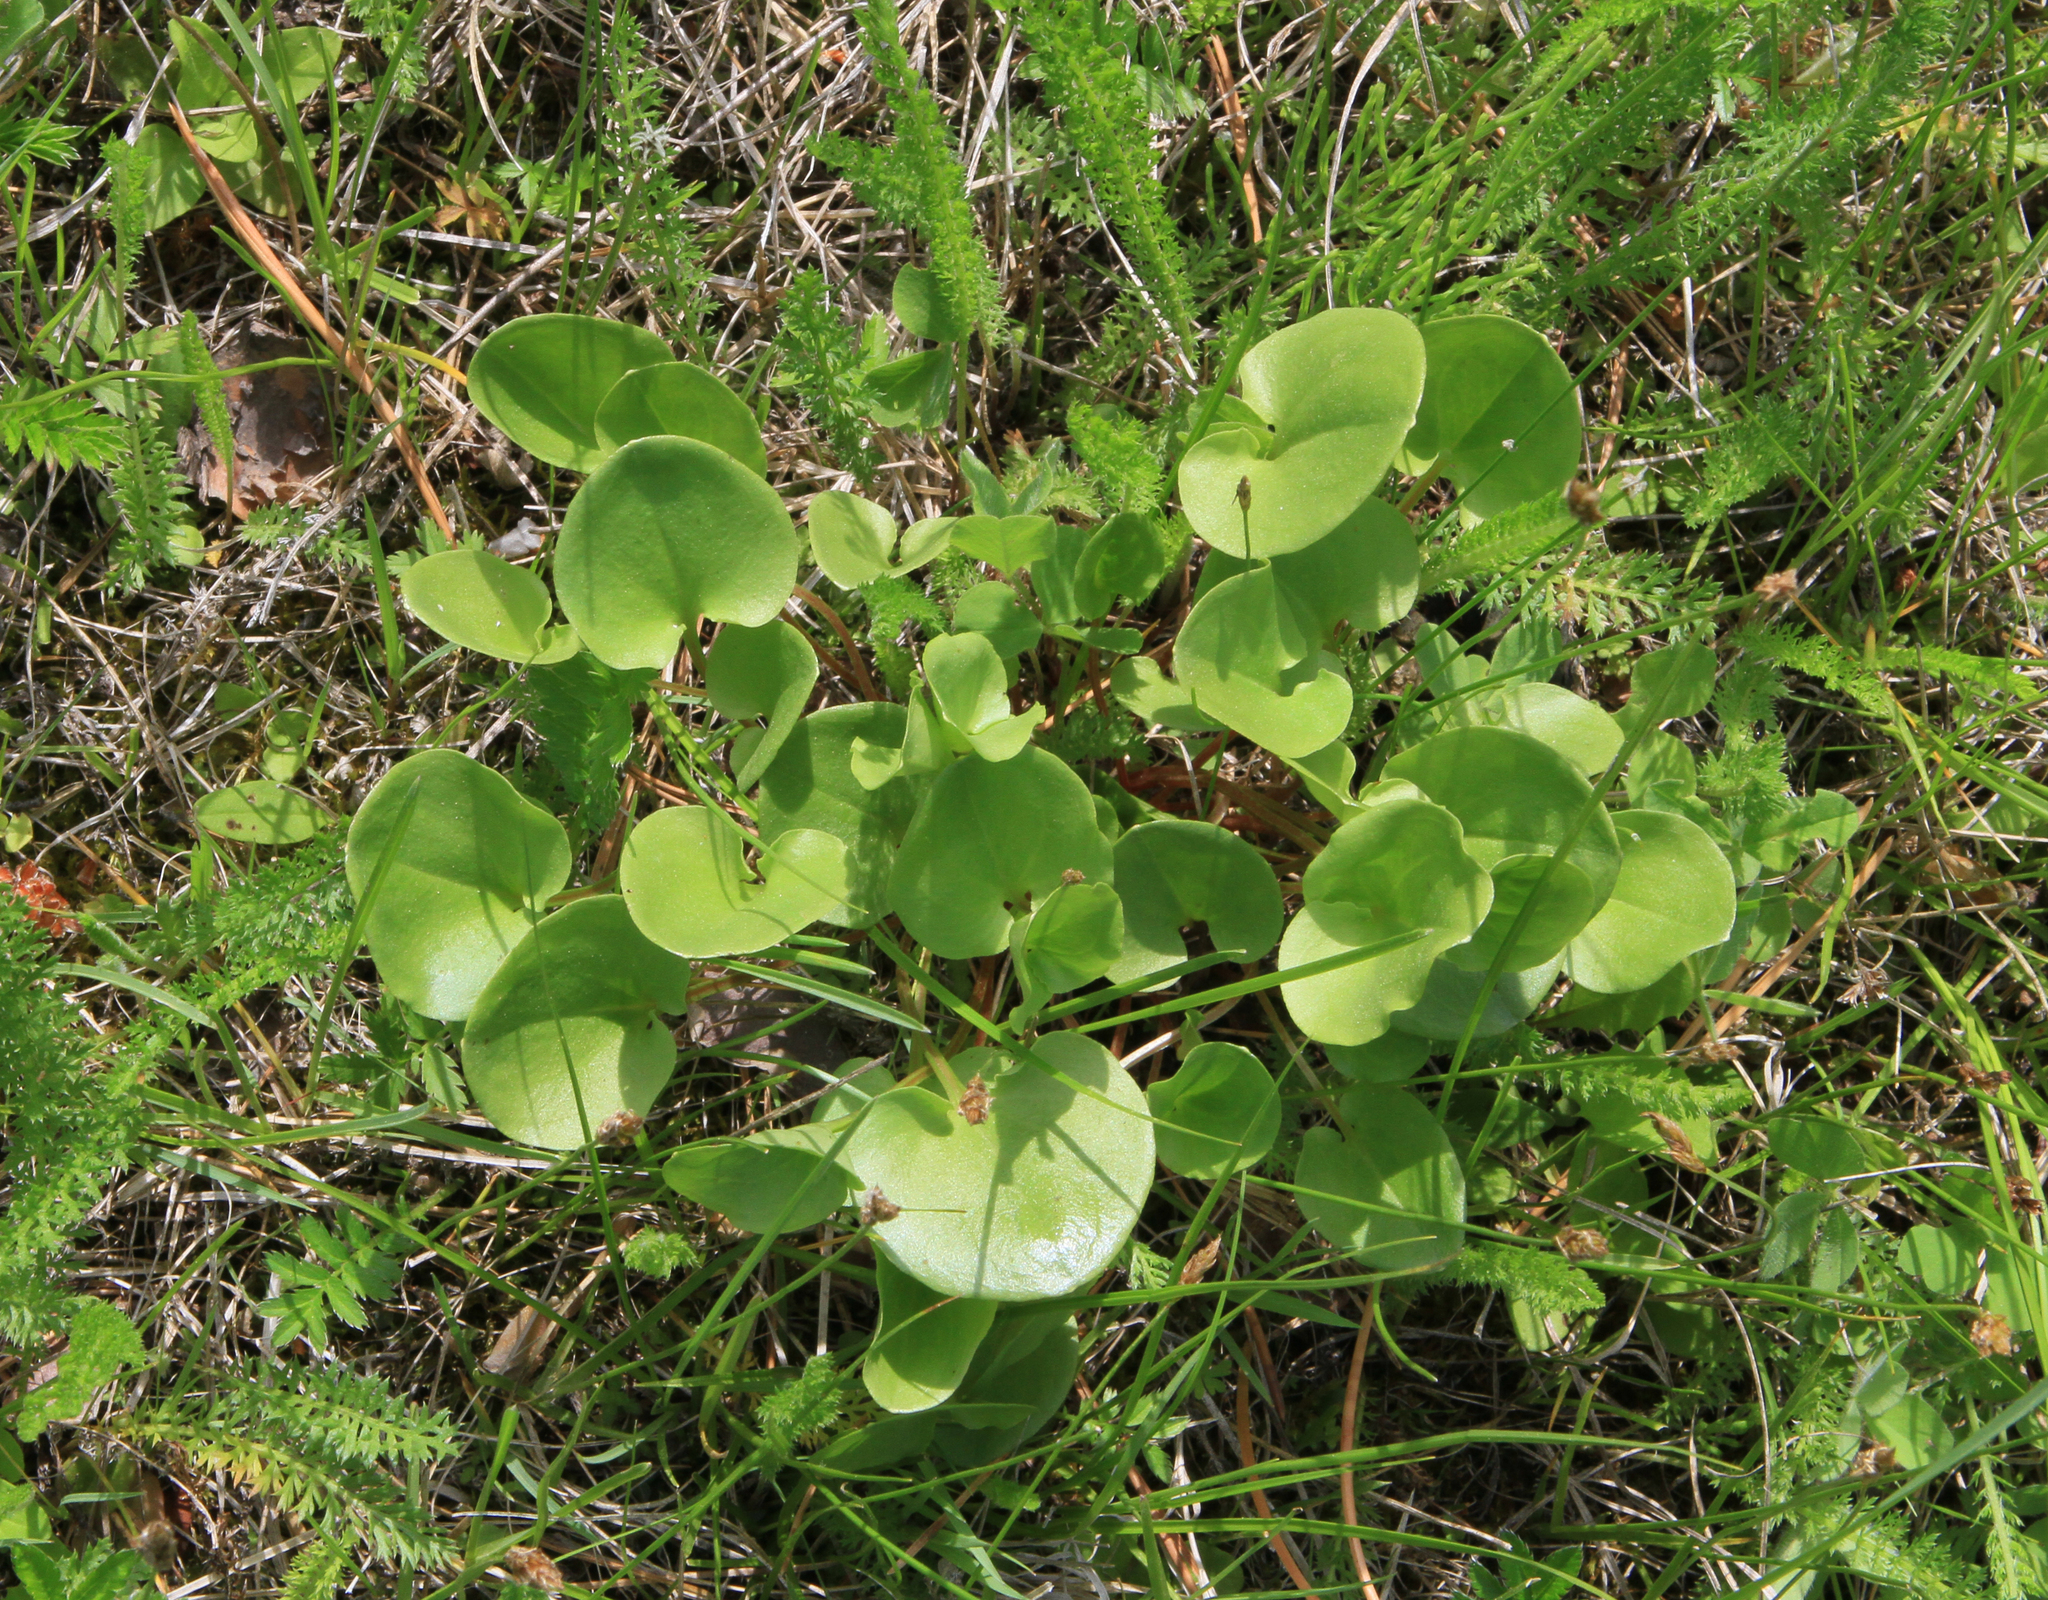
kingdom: Plantae
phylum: Tracheophyta
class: Magnoliopsida
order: Celastrales
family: Parnassiaceae
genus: Parnassia
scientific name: Parnassia palustris
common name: Grass-of-parnassus
